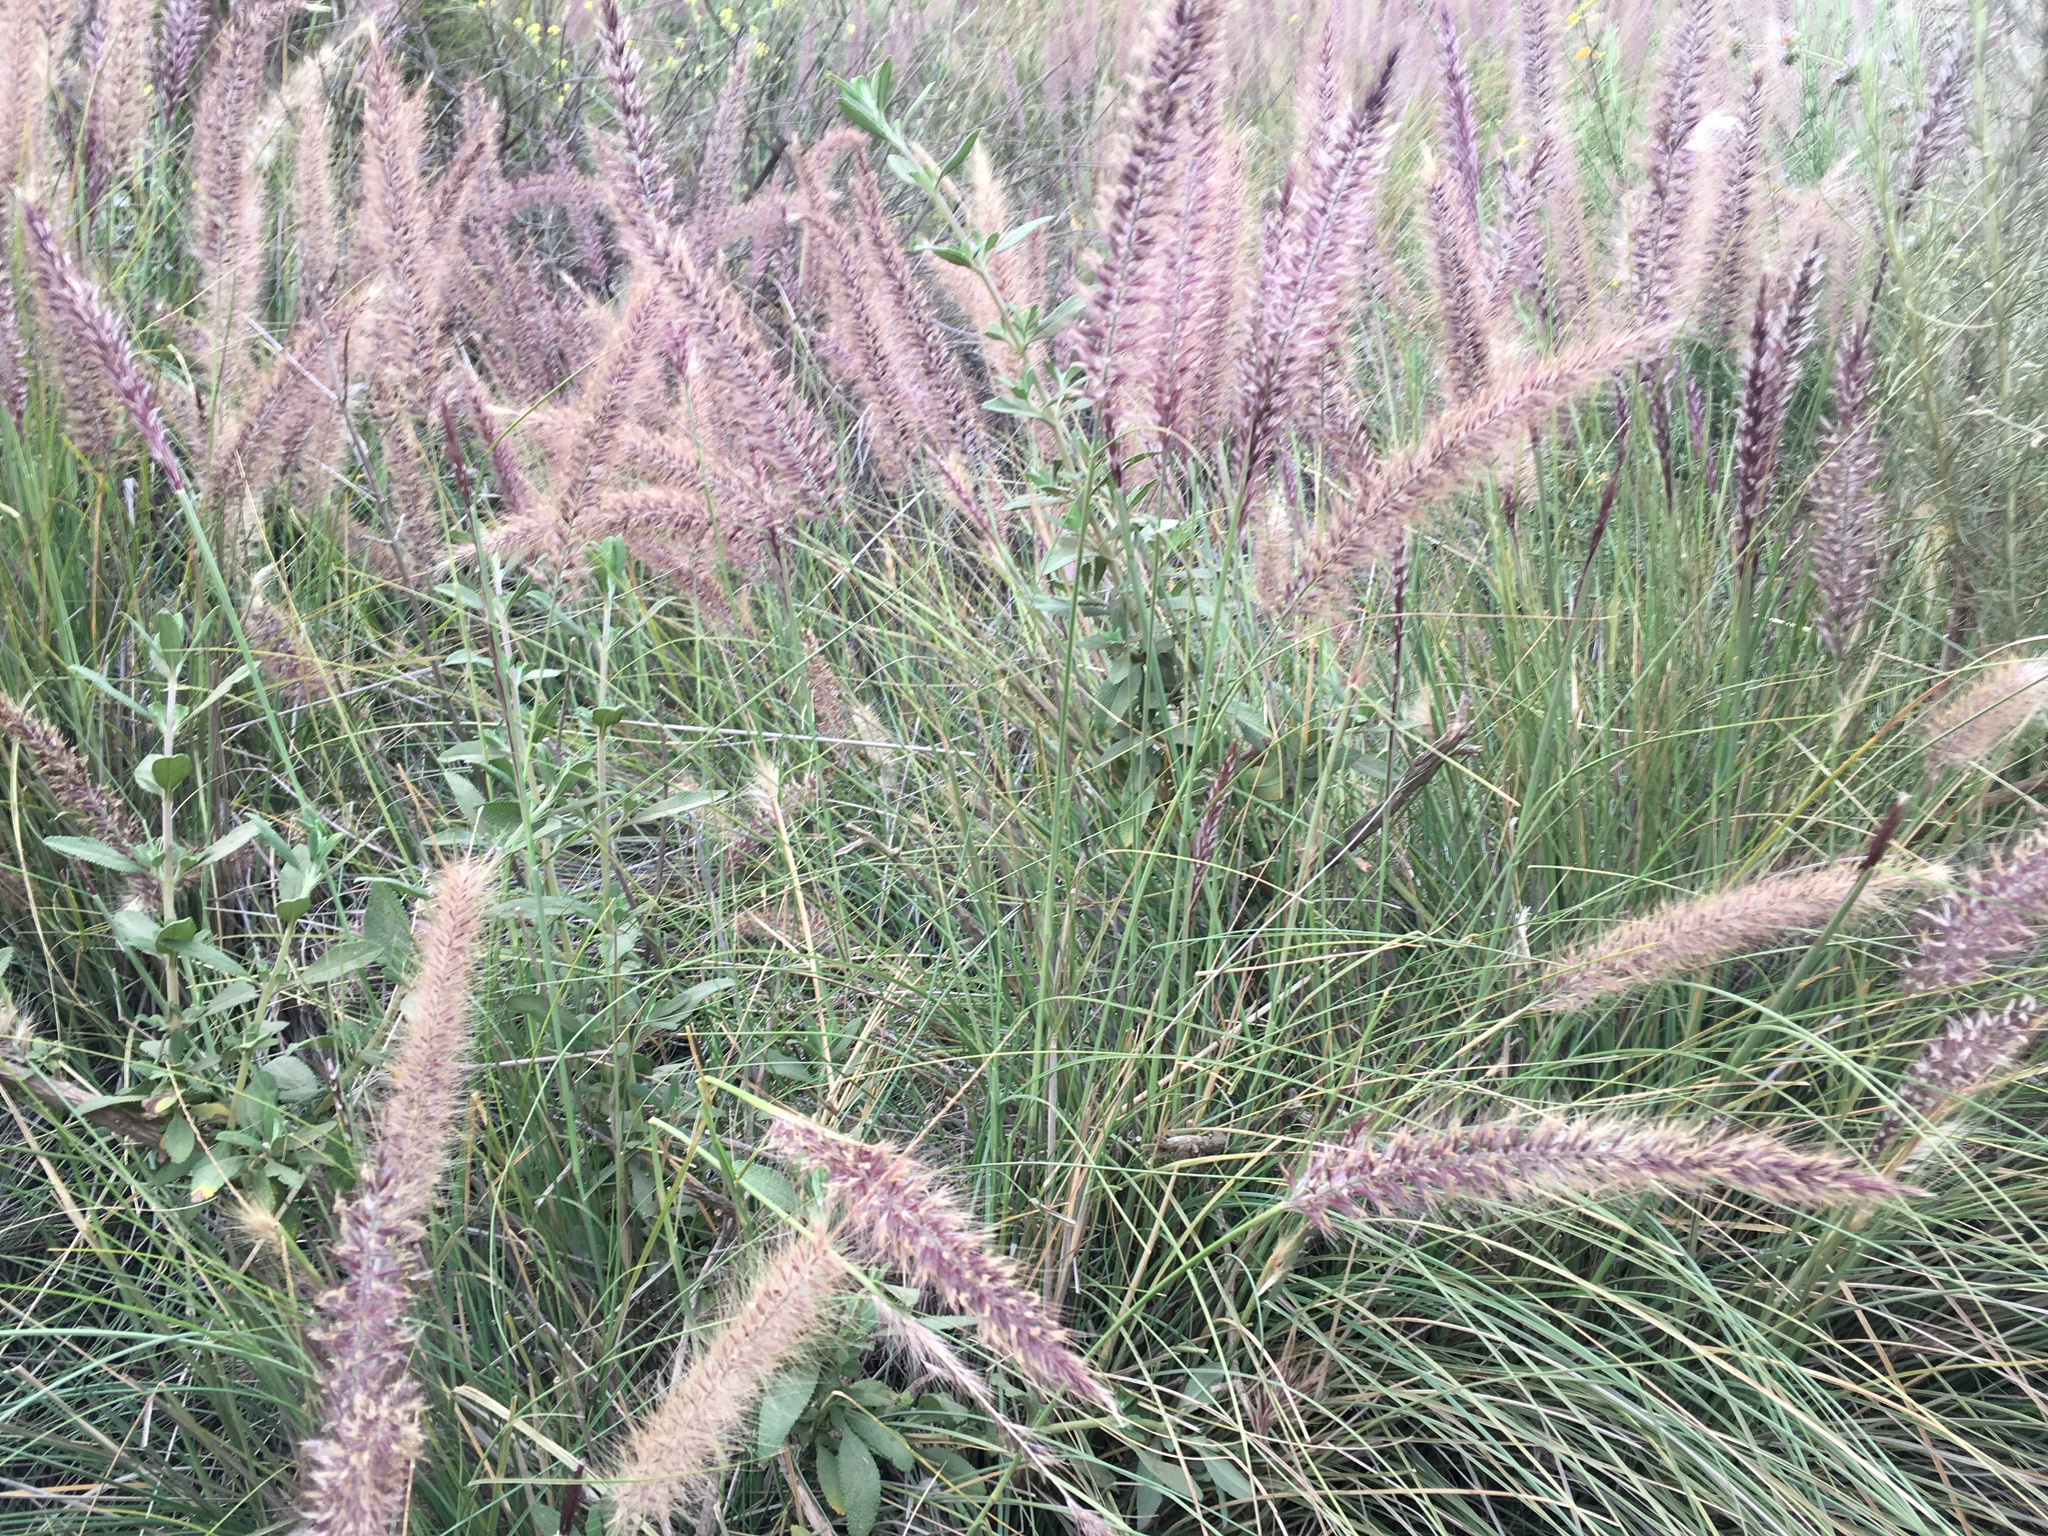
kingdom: Plantae
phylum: Tracheophyta
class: Liliopsida
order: Poales
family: Poaceae
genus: Cenchrus
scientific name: Cenchrus setaceus
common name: Crimson fountaingrass
